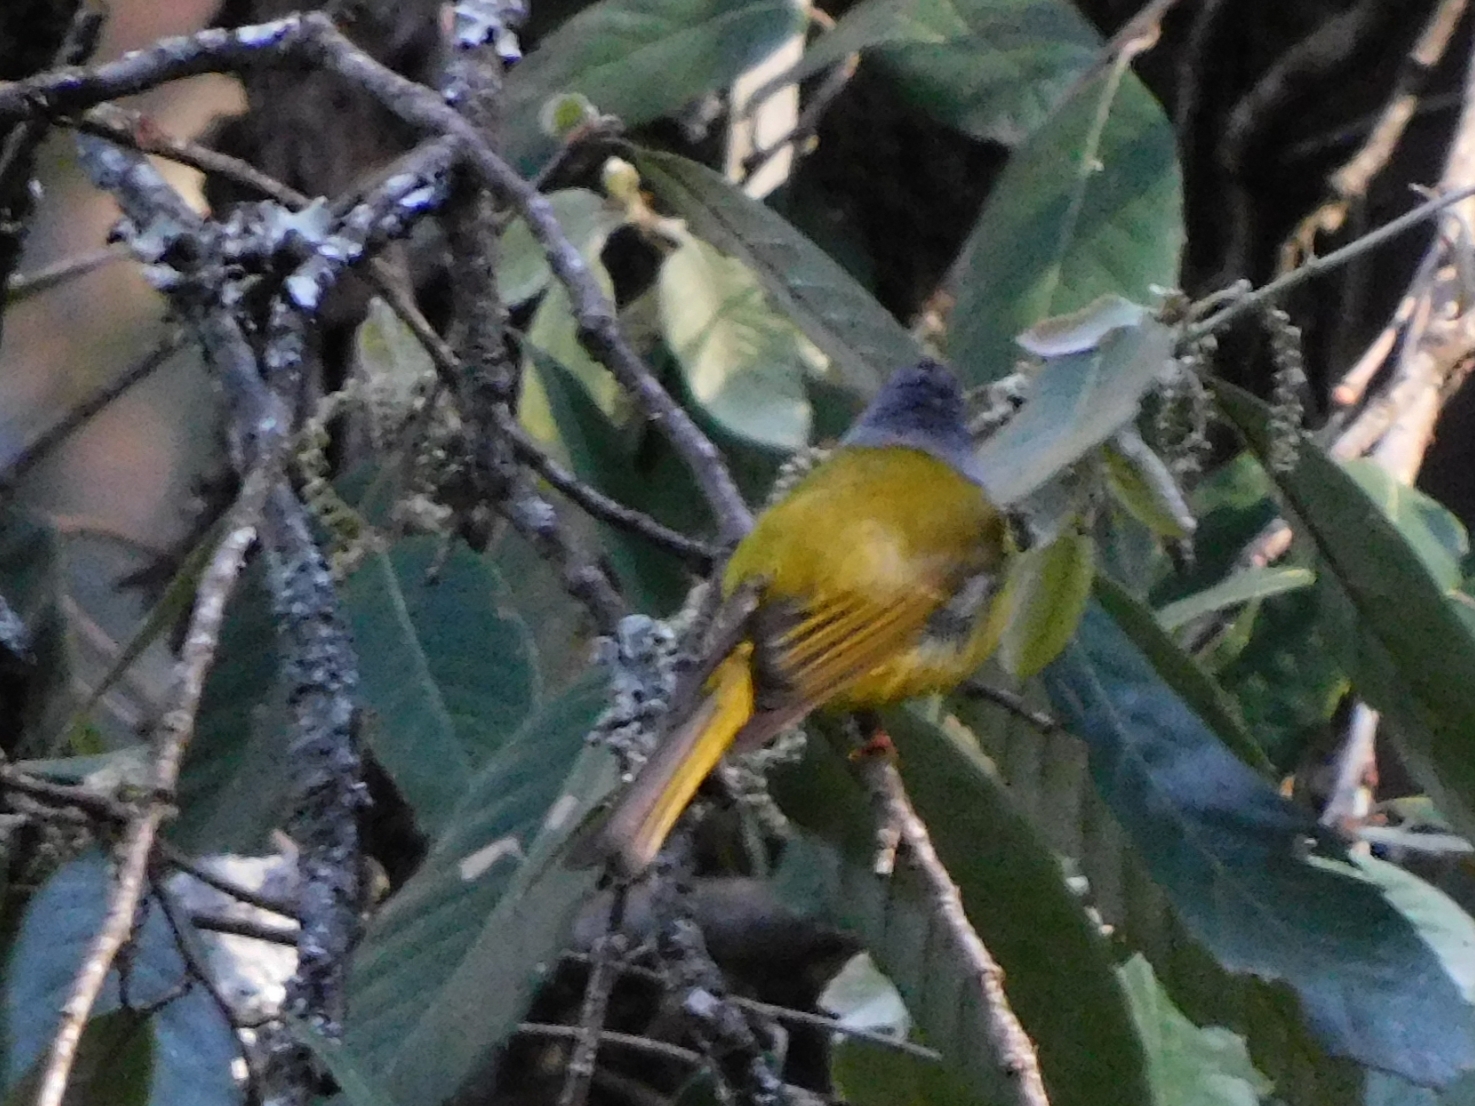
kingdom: Animalia
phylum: Chordata
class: Aves
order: Passeriformes
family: Stenostiridae
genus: Culicicapa
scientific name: Culicicapa ceylonensis
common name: Grey-headed canary-flycatcher
